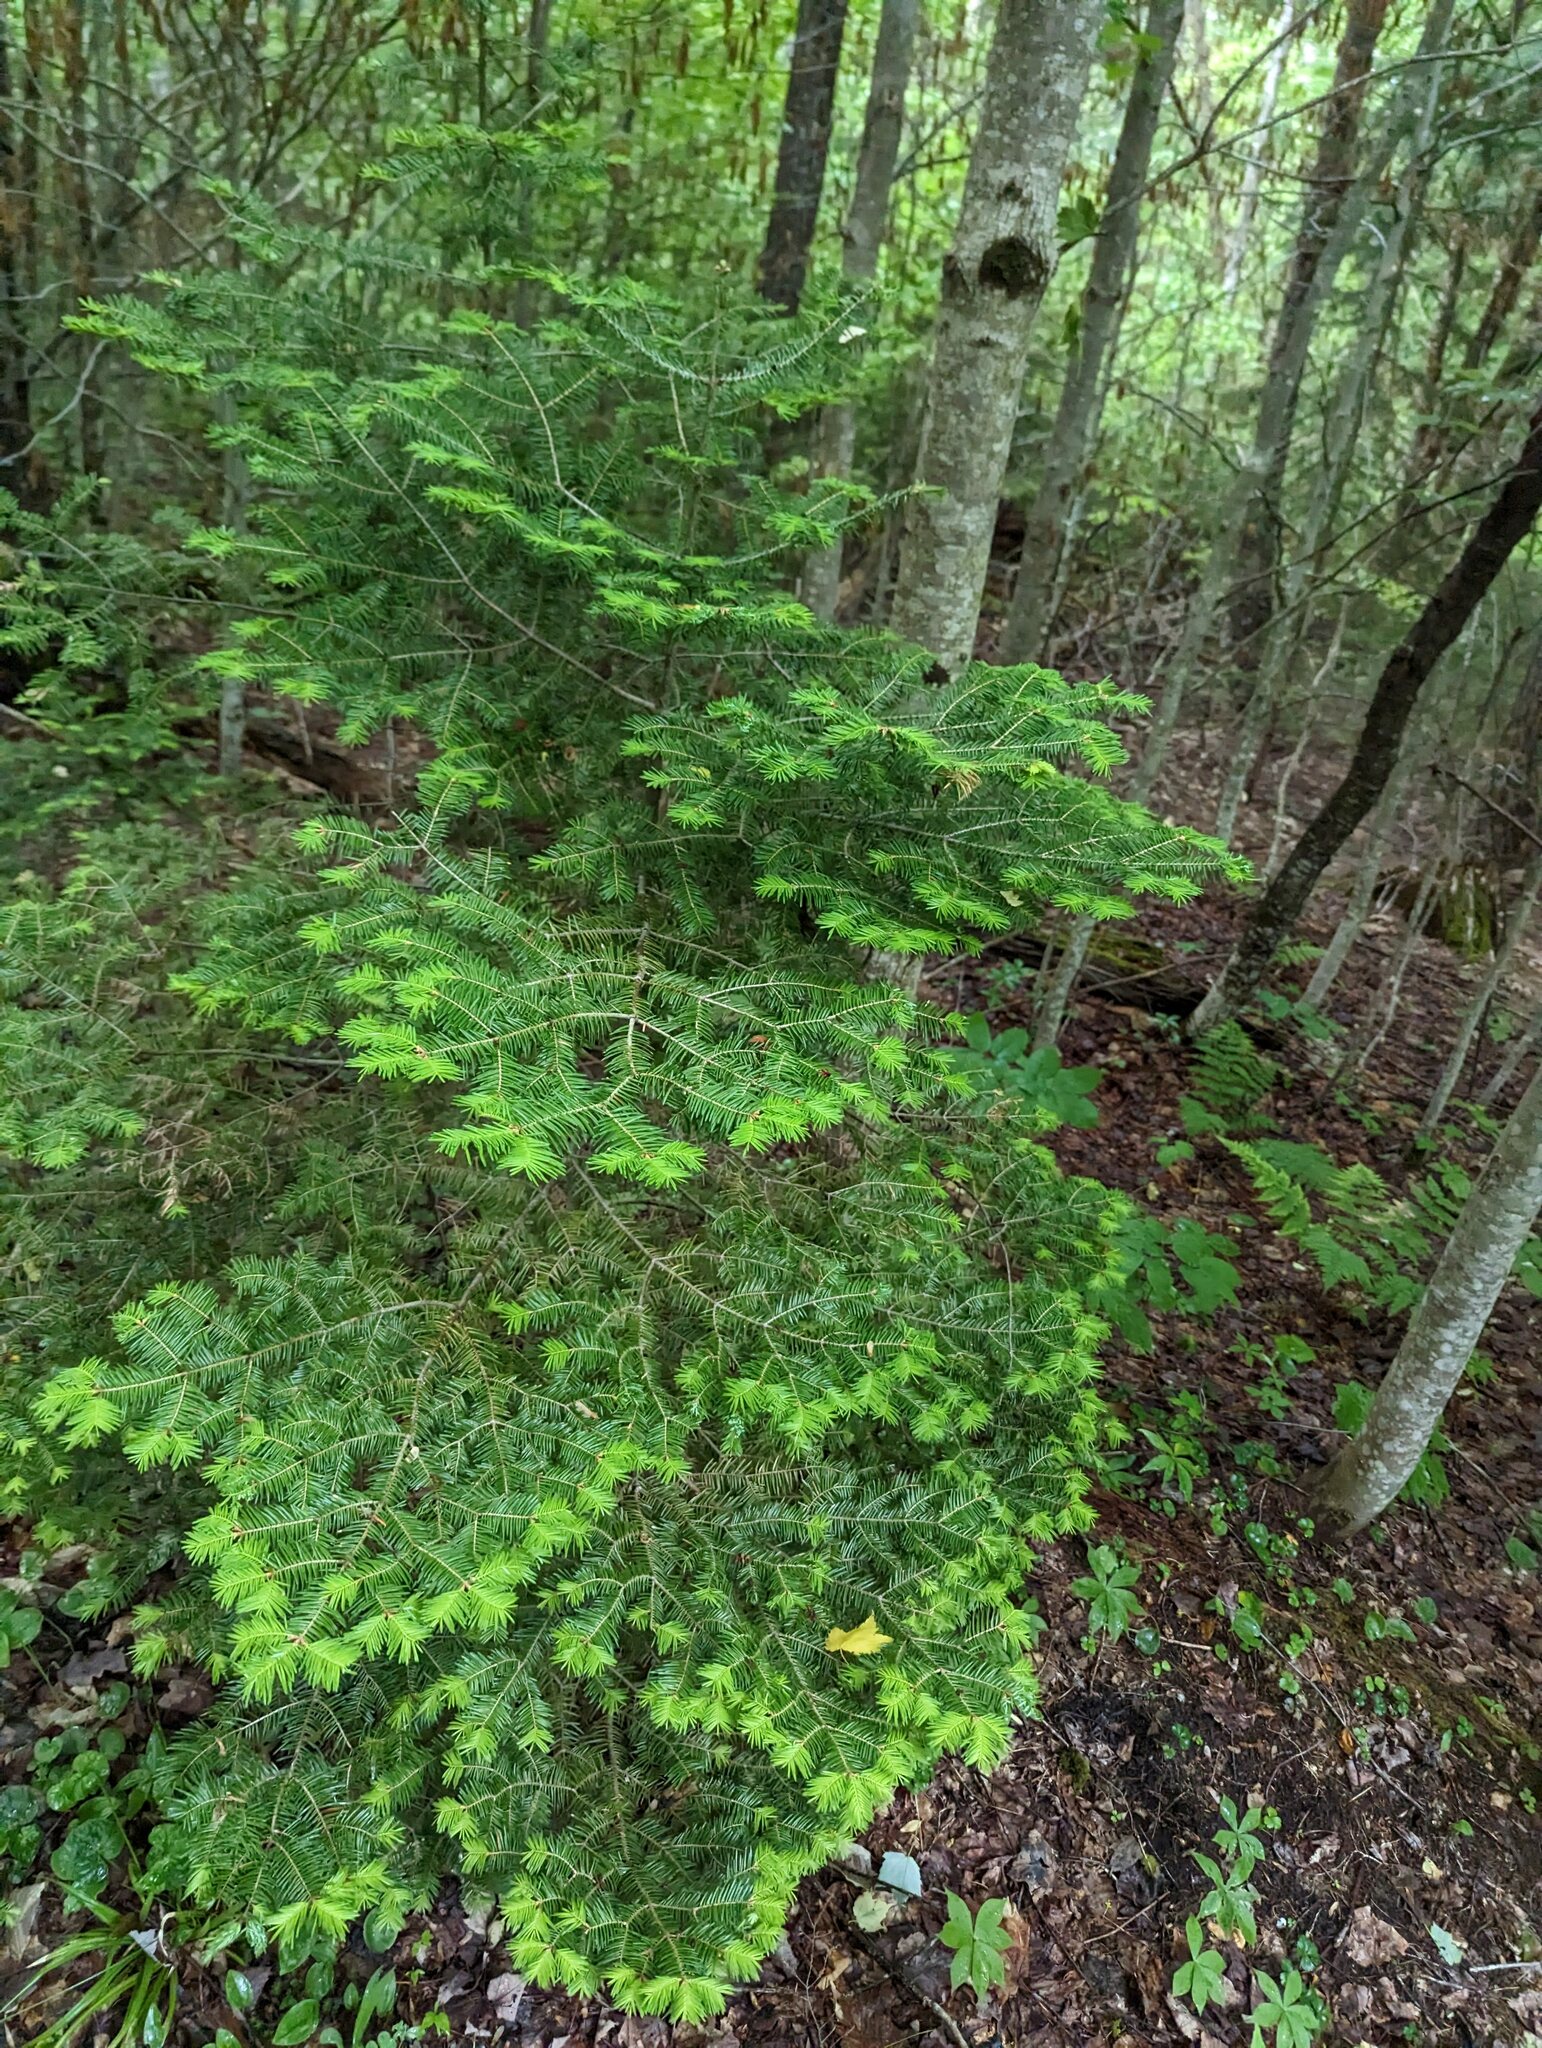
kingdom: Plantae
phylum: Tracheophyta
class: Pinopsida
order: Pinales
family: Pinaceae
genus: Abies
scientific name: Abies balsamea
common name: Balsam fir
